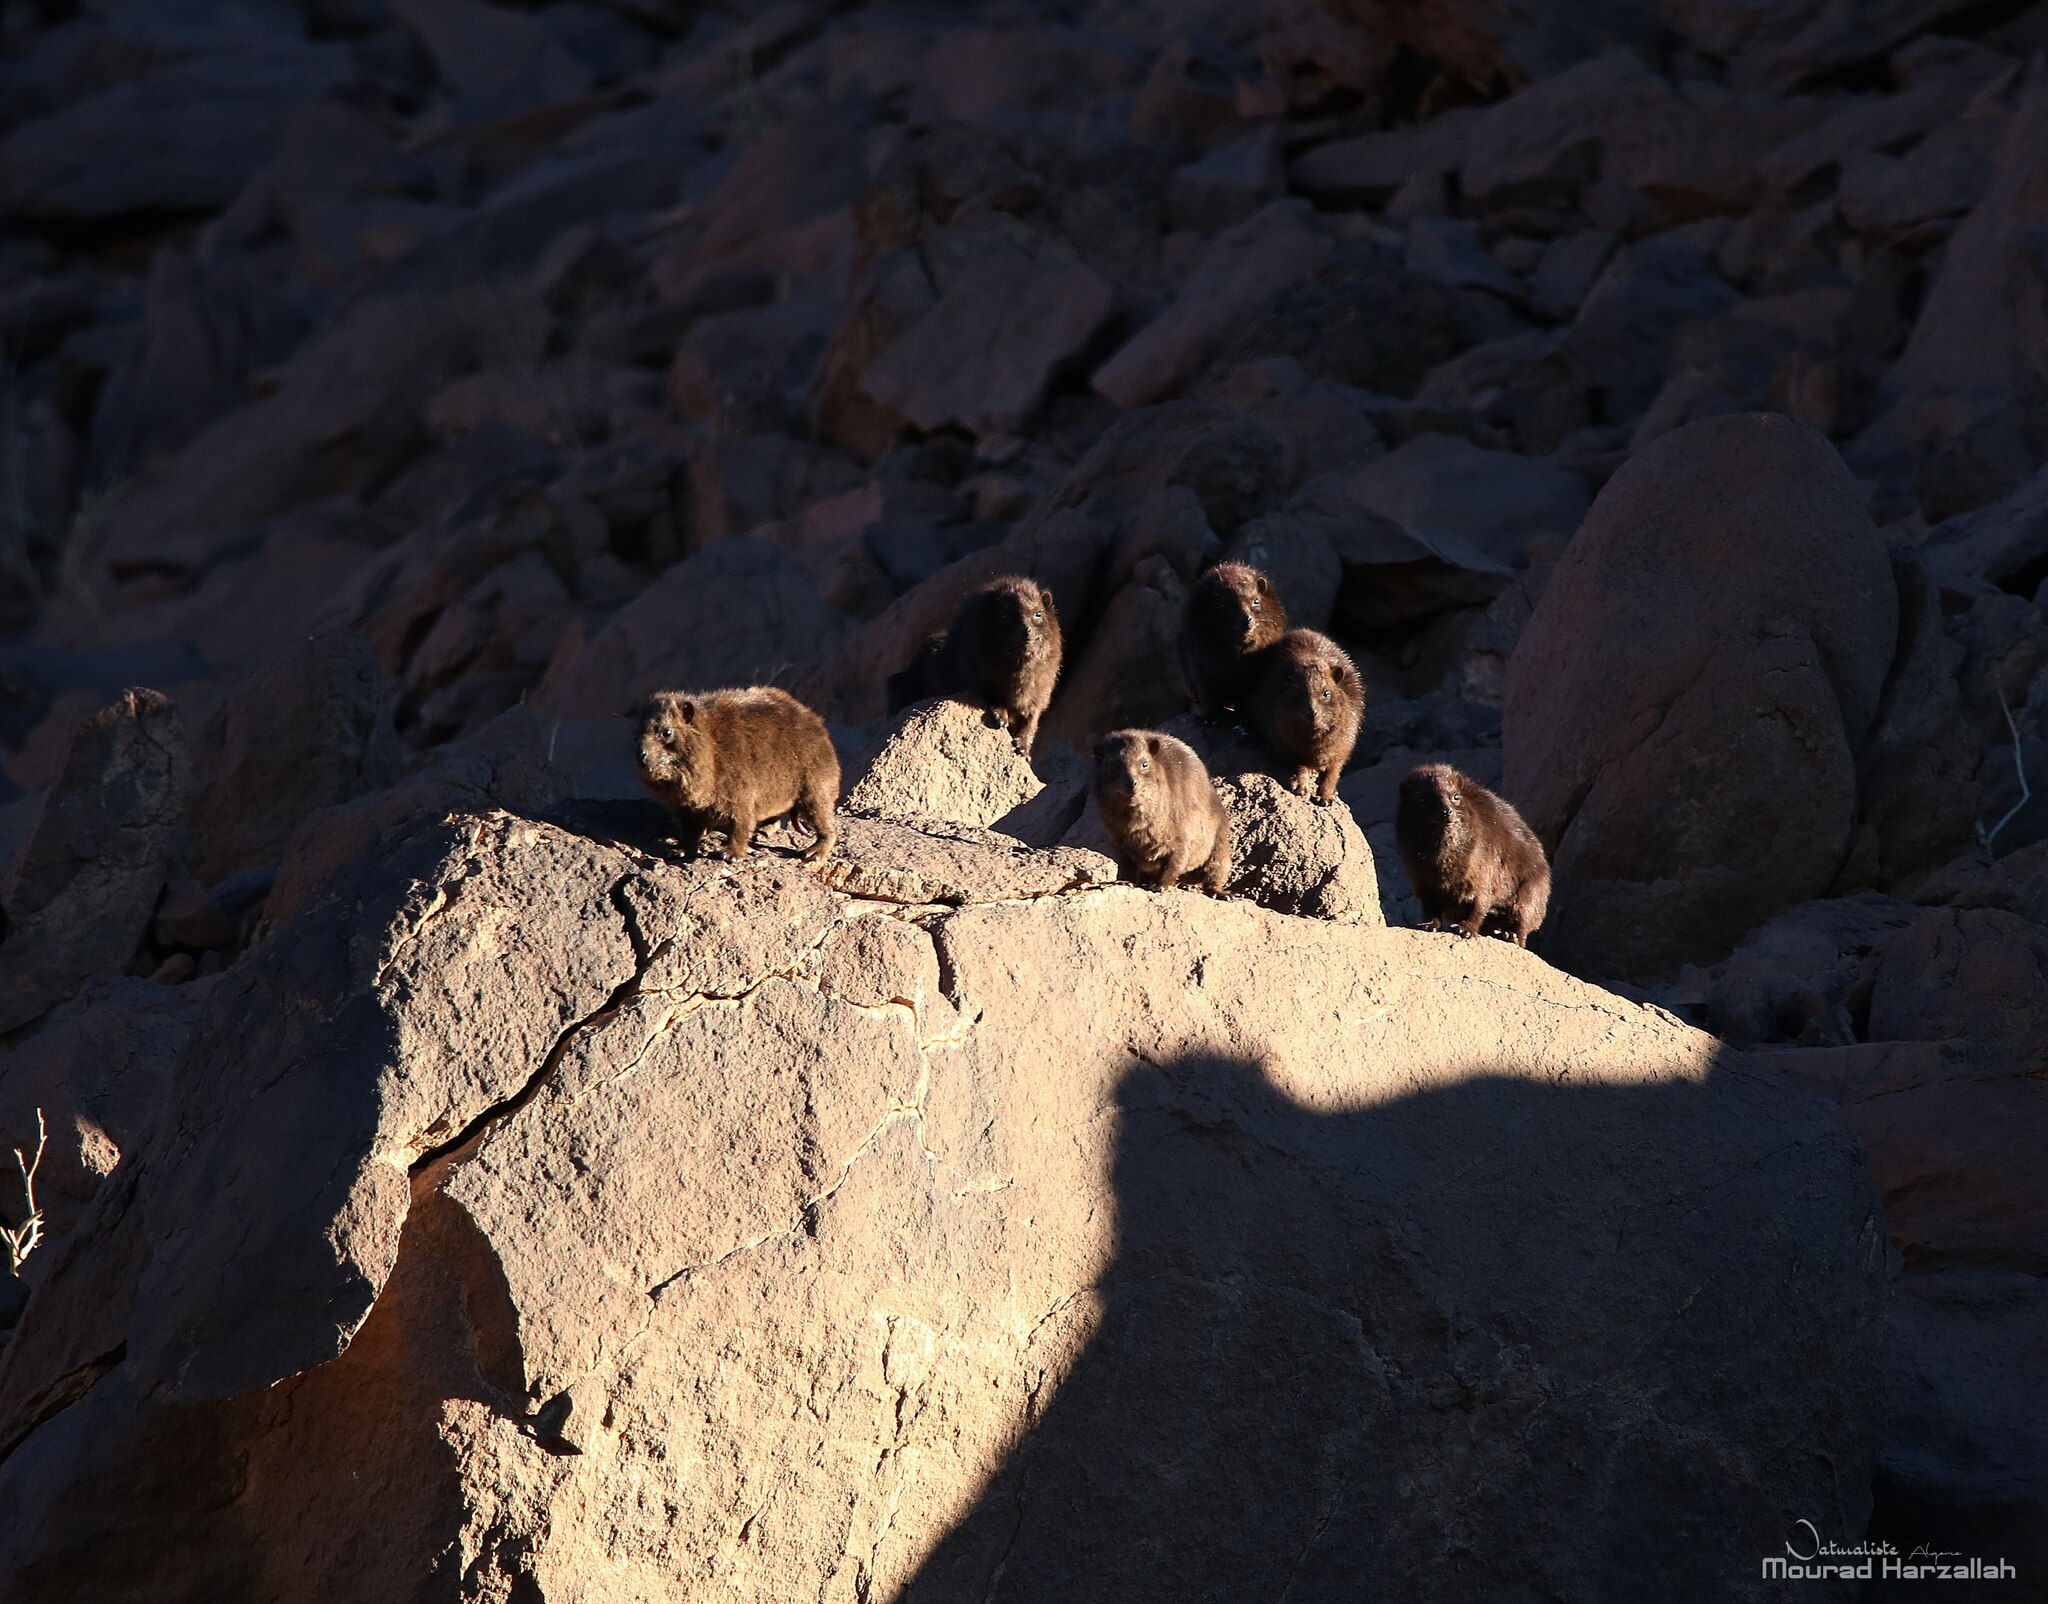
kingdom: Animalia
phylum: Chordata
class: Mammalia
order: Hyracoidea
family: Procaviidae
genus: Procavia
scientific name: Procavia capensis
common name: Rock hyrax
